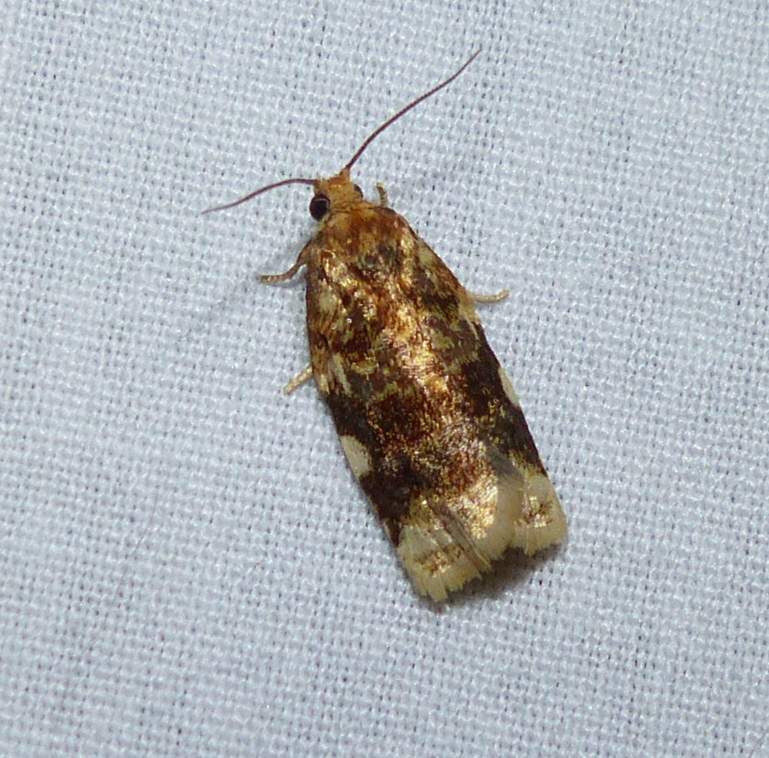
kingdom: Animalia
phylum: Arthropoda
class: Insecta
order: Lepidoptera
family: Tortricidae
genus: Archips
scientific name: Archips argyrospila
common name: Fruit-tree leafroller moth
